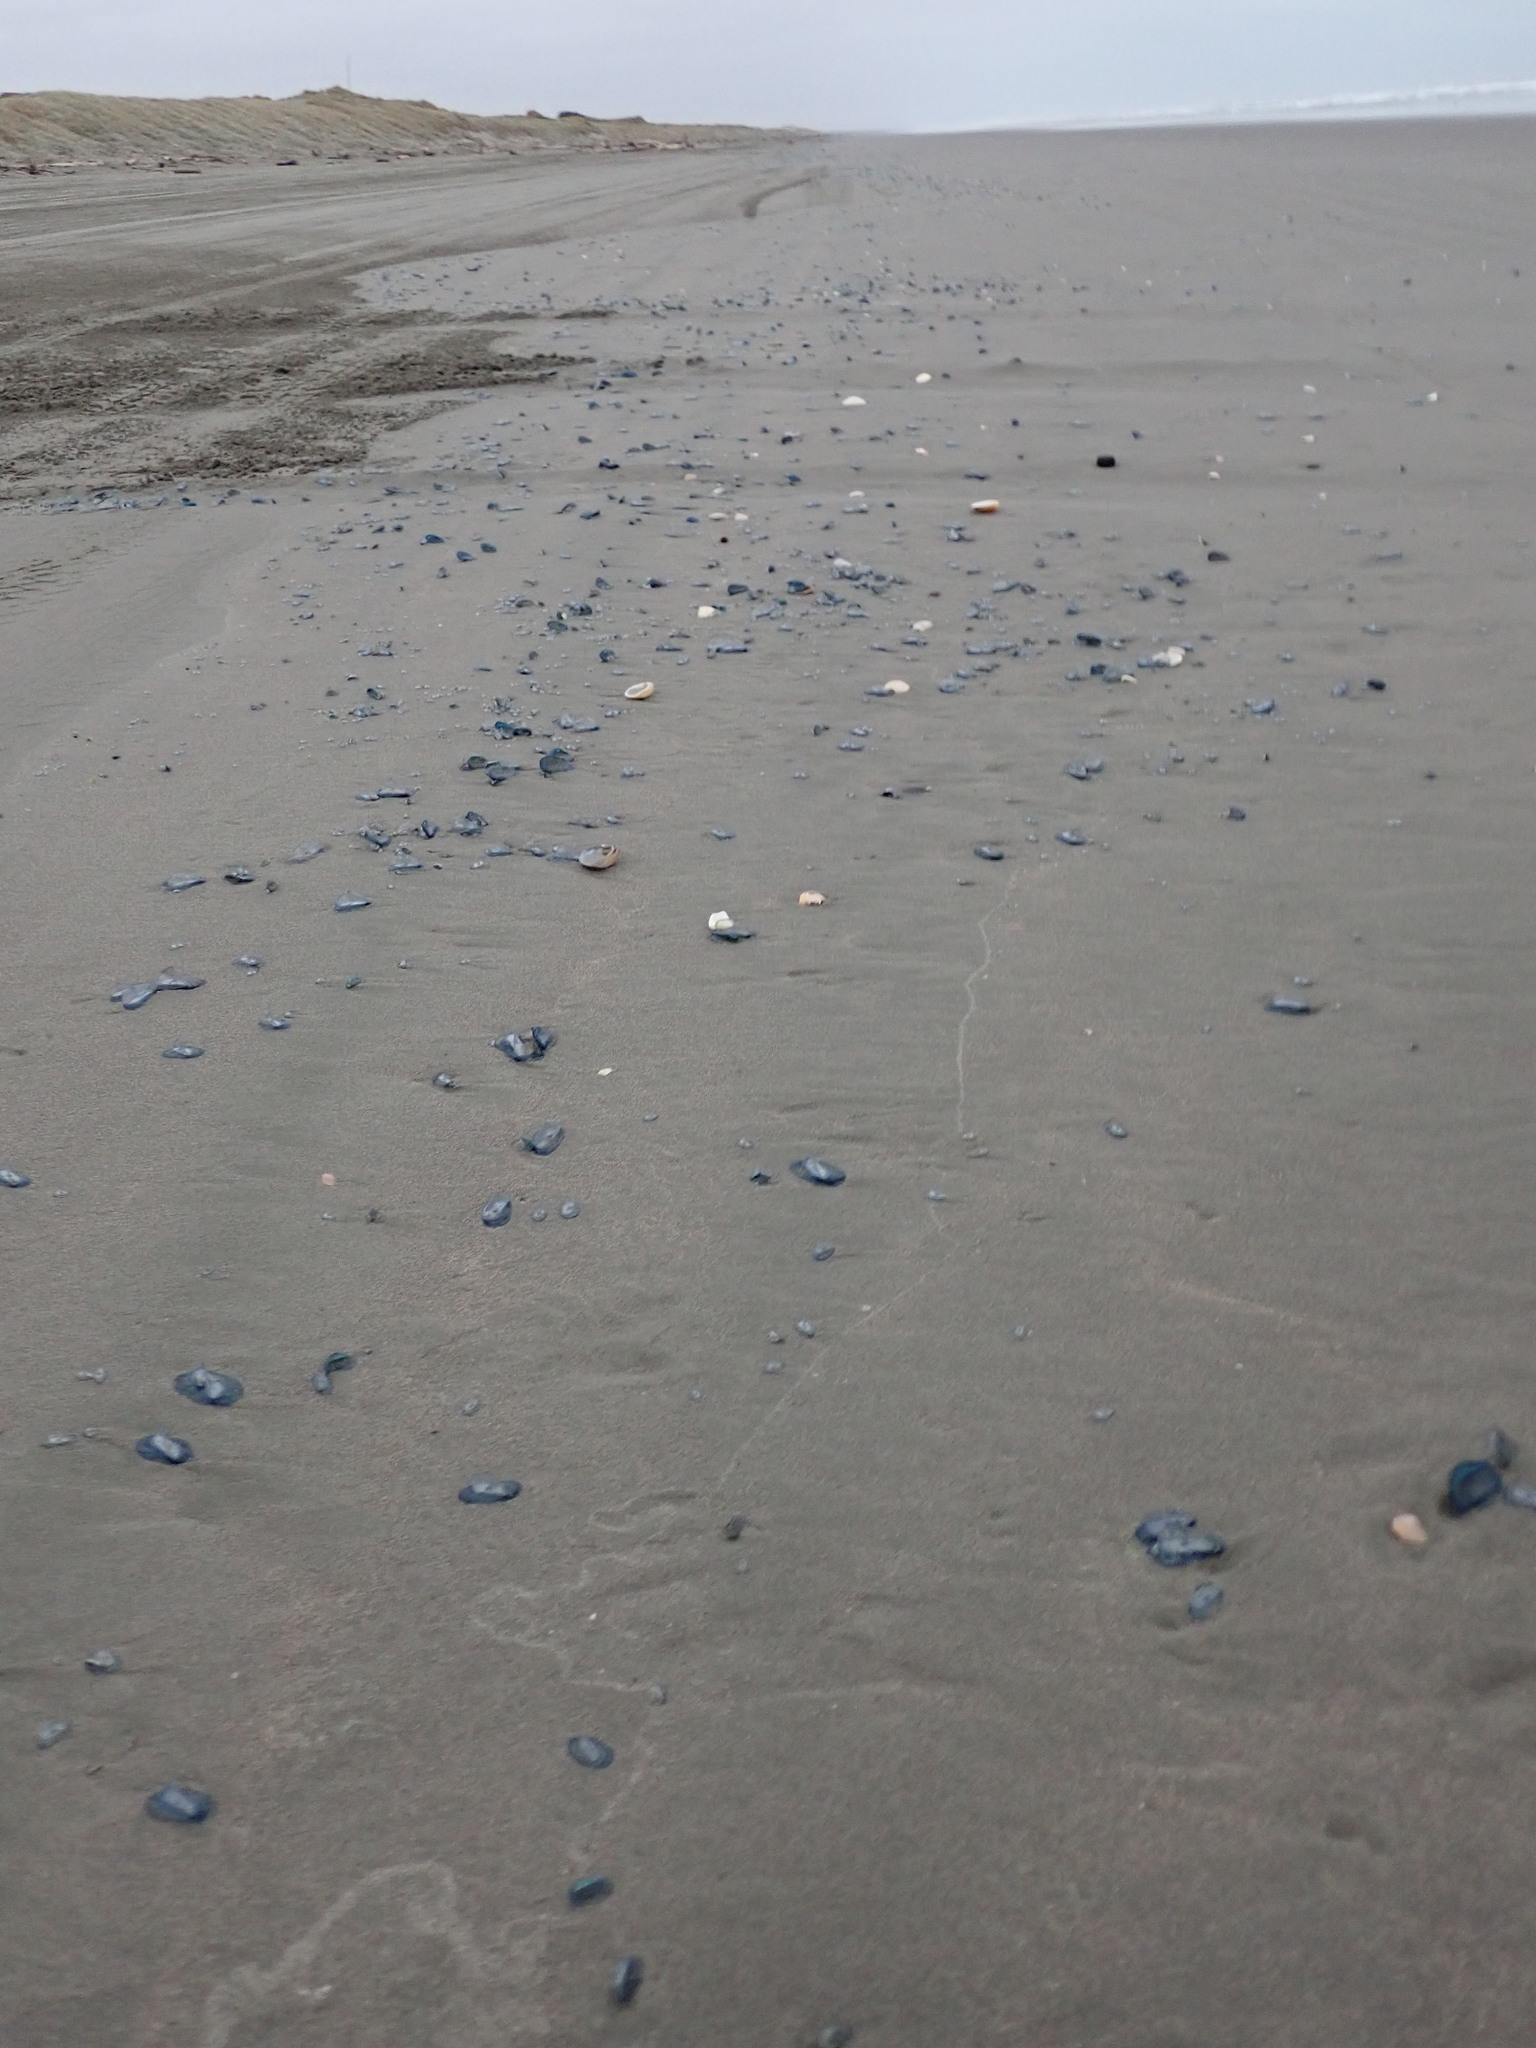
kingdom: Animalia
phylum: Cnidaria
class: Hydrozoa
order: Anthoathecata
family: Porpitidae
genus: Velella
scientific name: Velella velella
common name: By-the-wind-sailor
